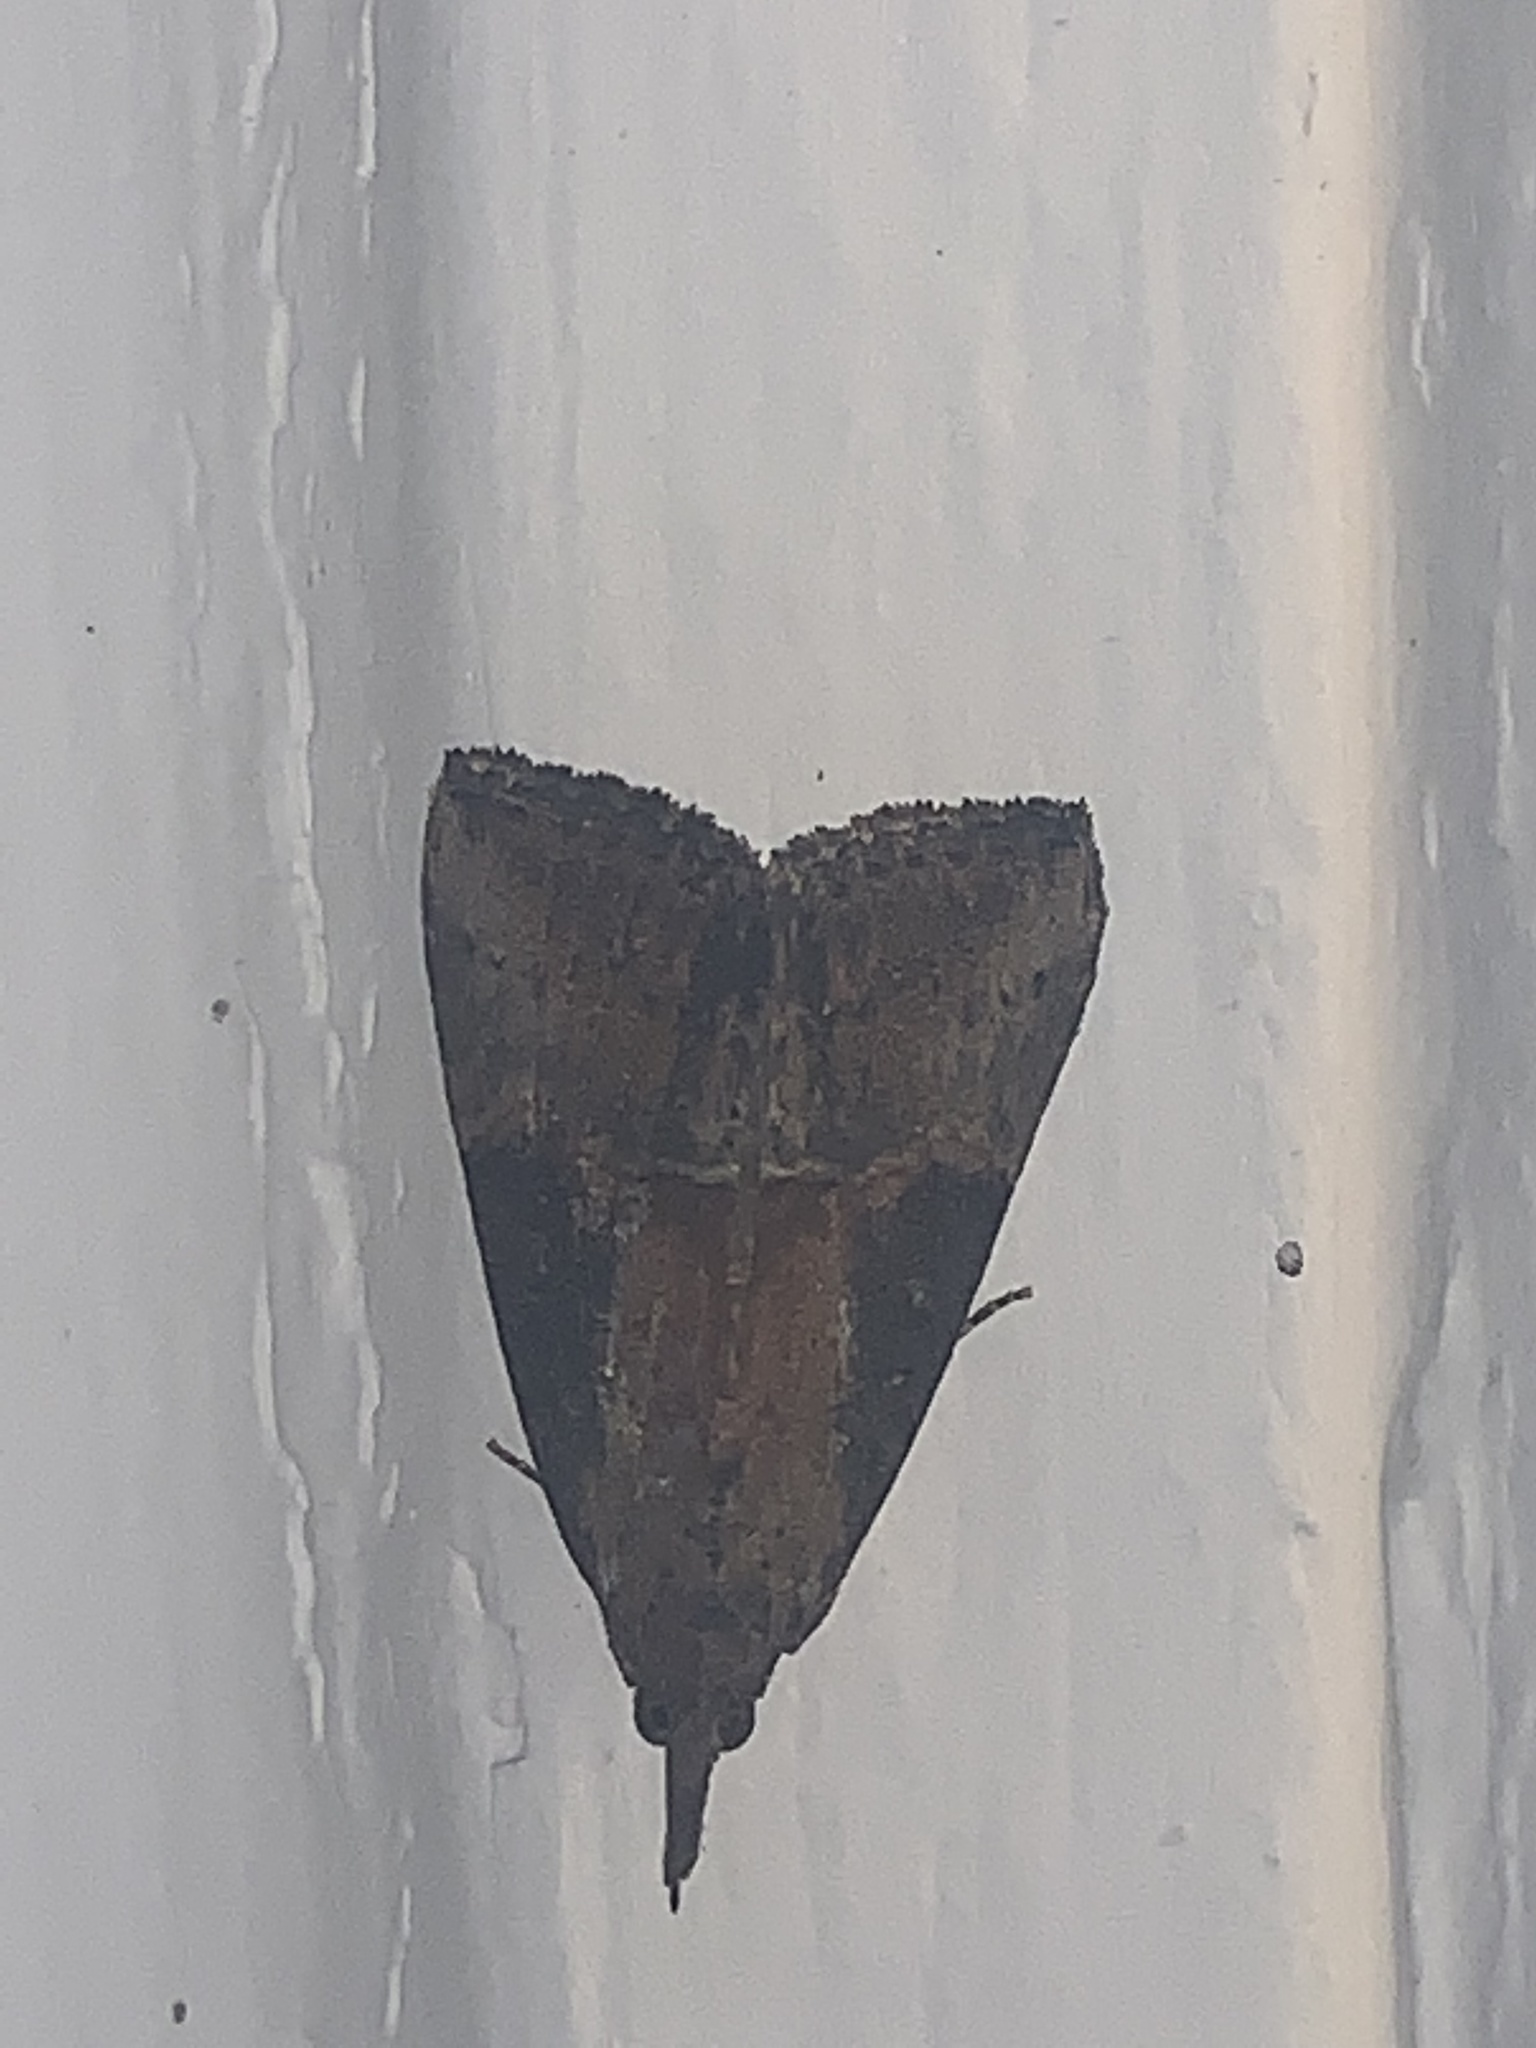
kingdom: Animalia
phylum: Arthropoda
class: Insecta
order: Lepidoptera
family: Erebidae
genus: Hypena
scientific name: Hypena scabra
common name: Green cloverworm
